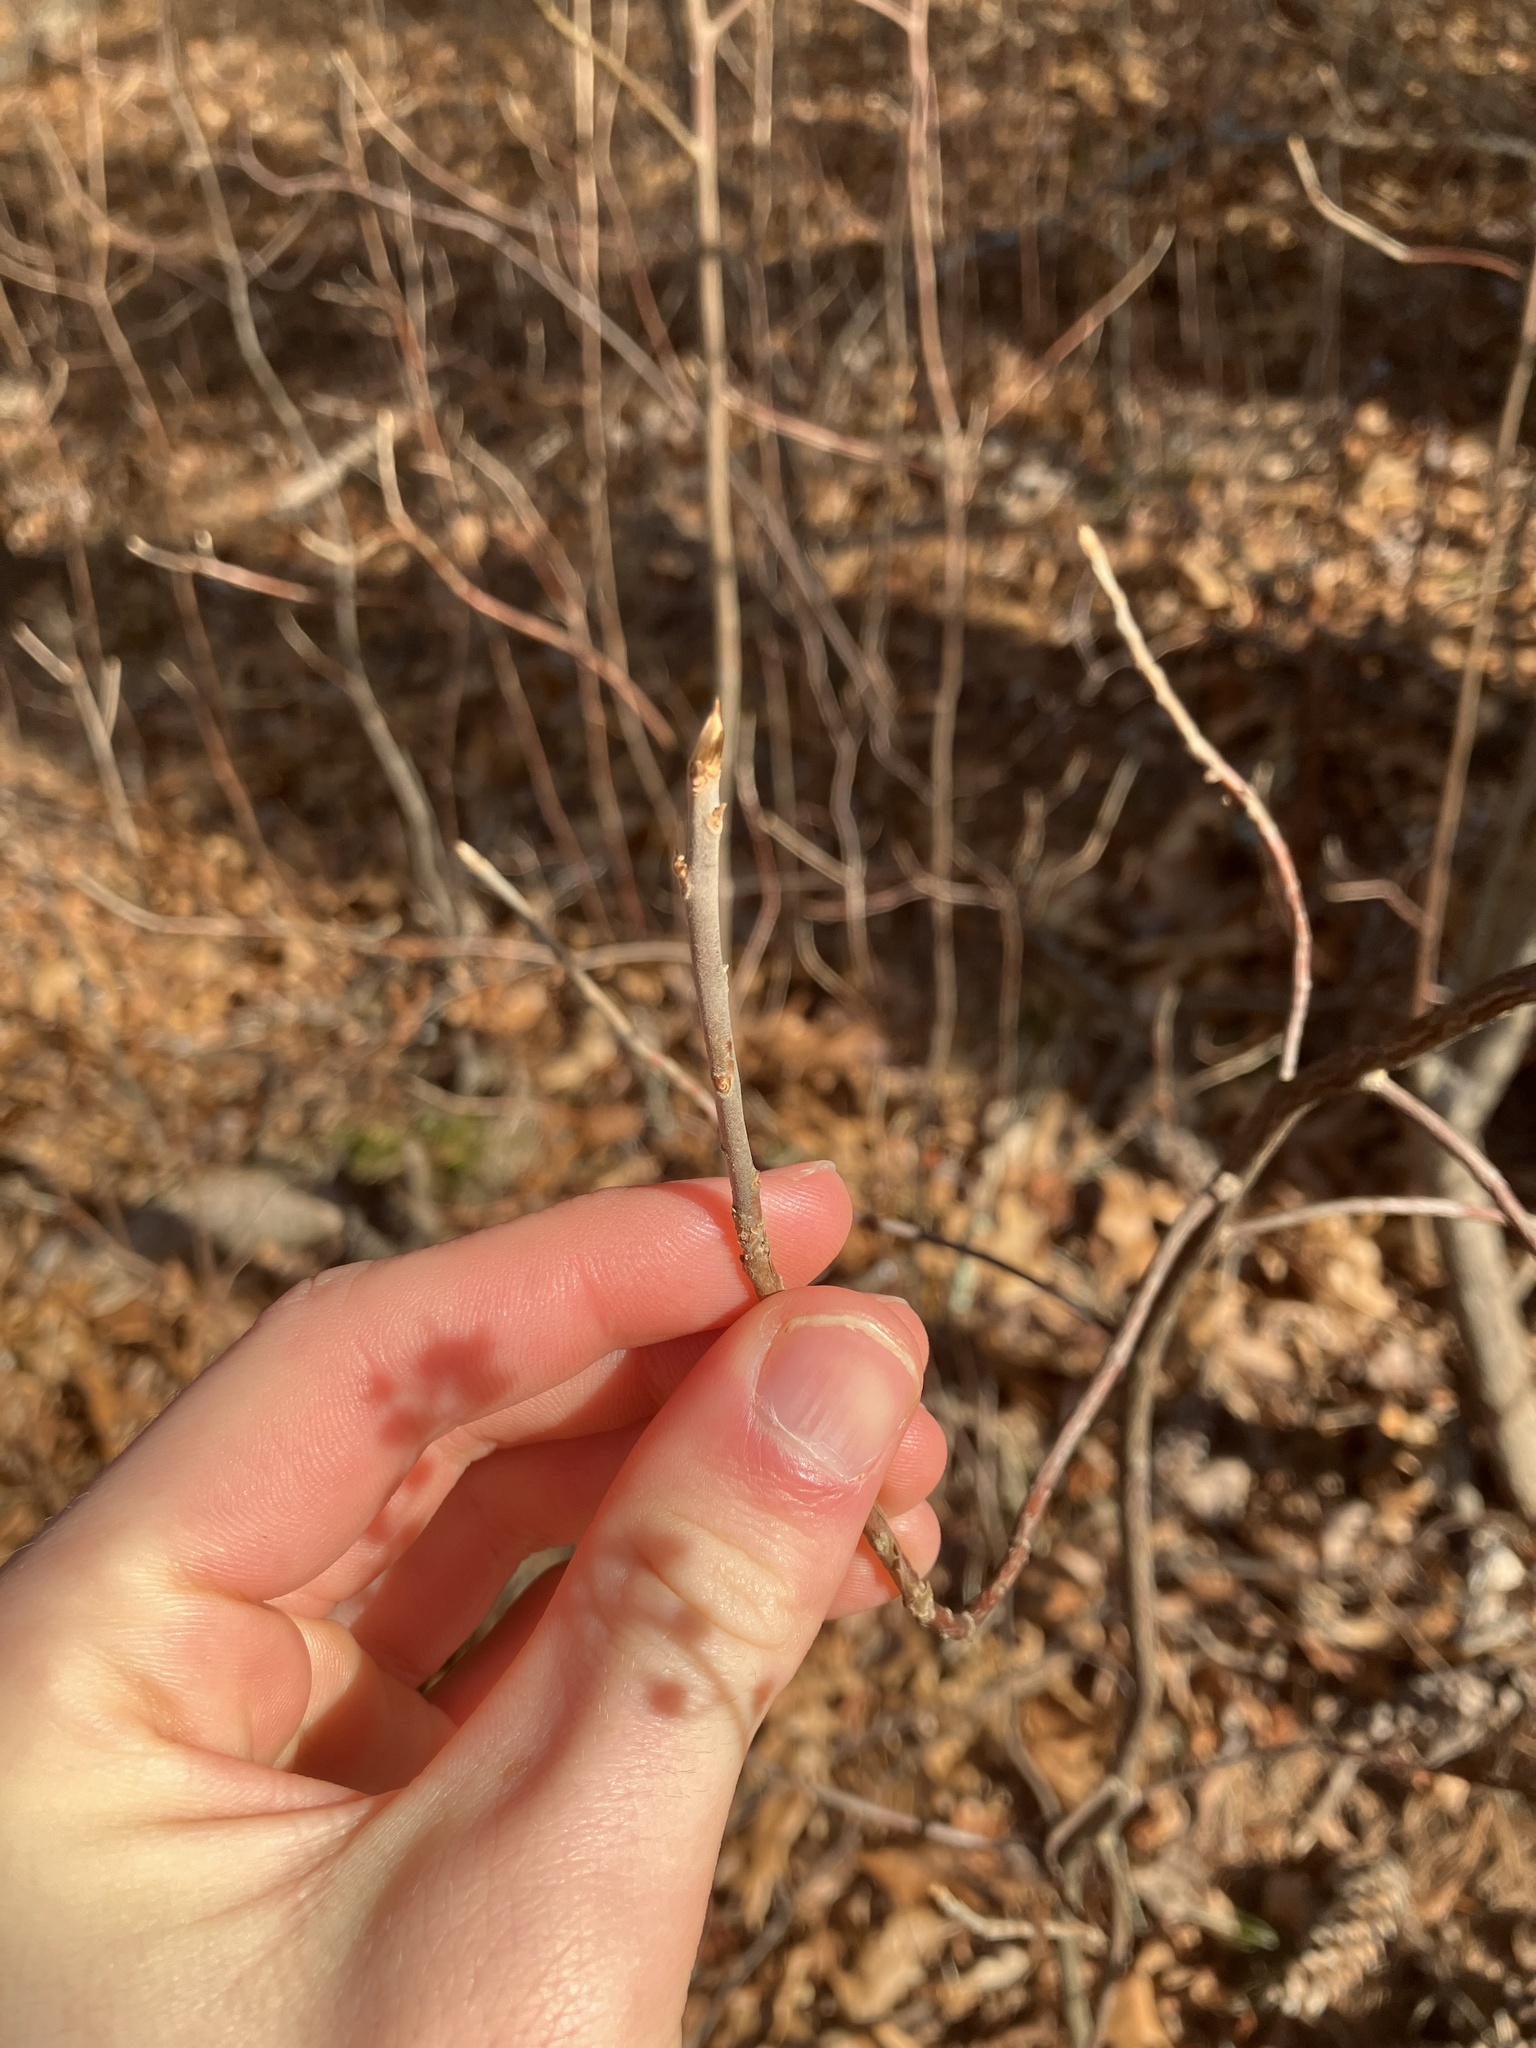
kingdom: Plantae
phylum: Tracheophyta
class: Magnoliopsida
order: Ericales
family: Clethraceae
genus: Clethra
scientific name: Clethra alnifolia
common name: Sweet pepperbush
